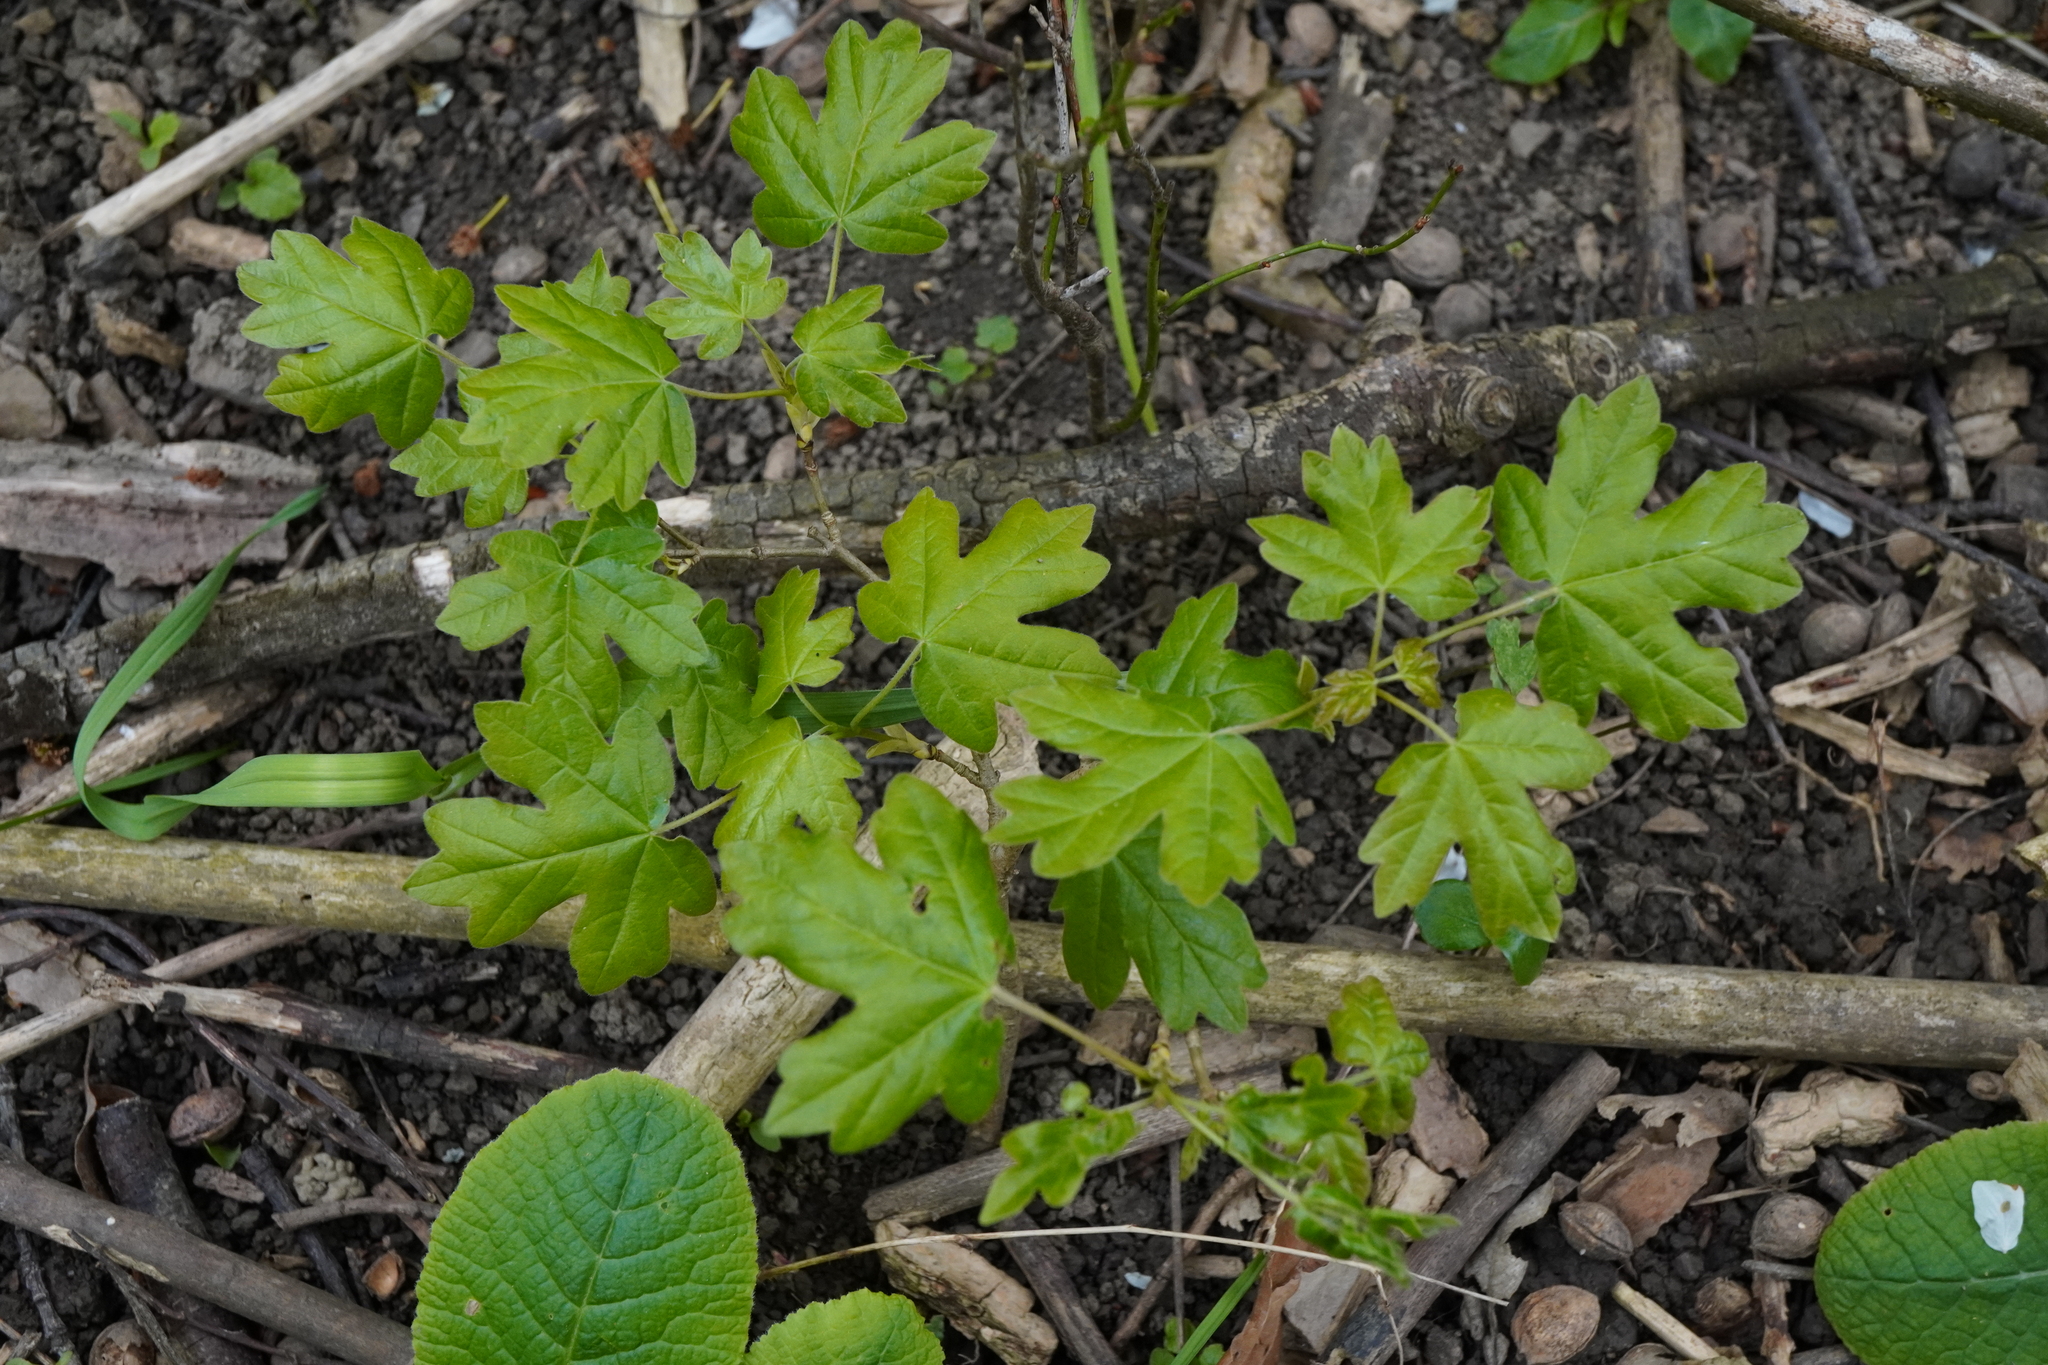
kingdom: Plantae
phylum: Tracheophyta
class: Magnoliopsida
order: Sapindales
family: Sapindaceae
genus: Acer
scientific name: Acer campestre
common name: Field maple
